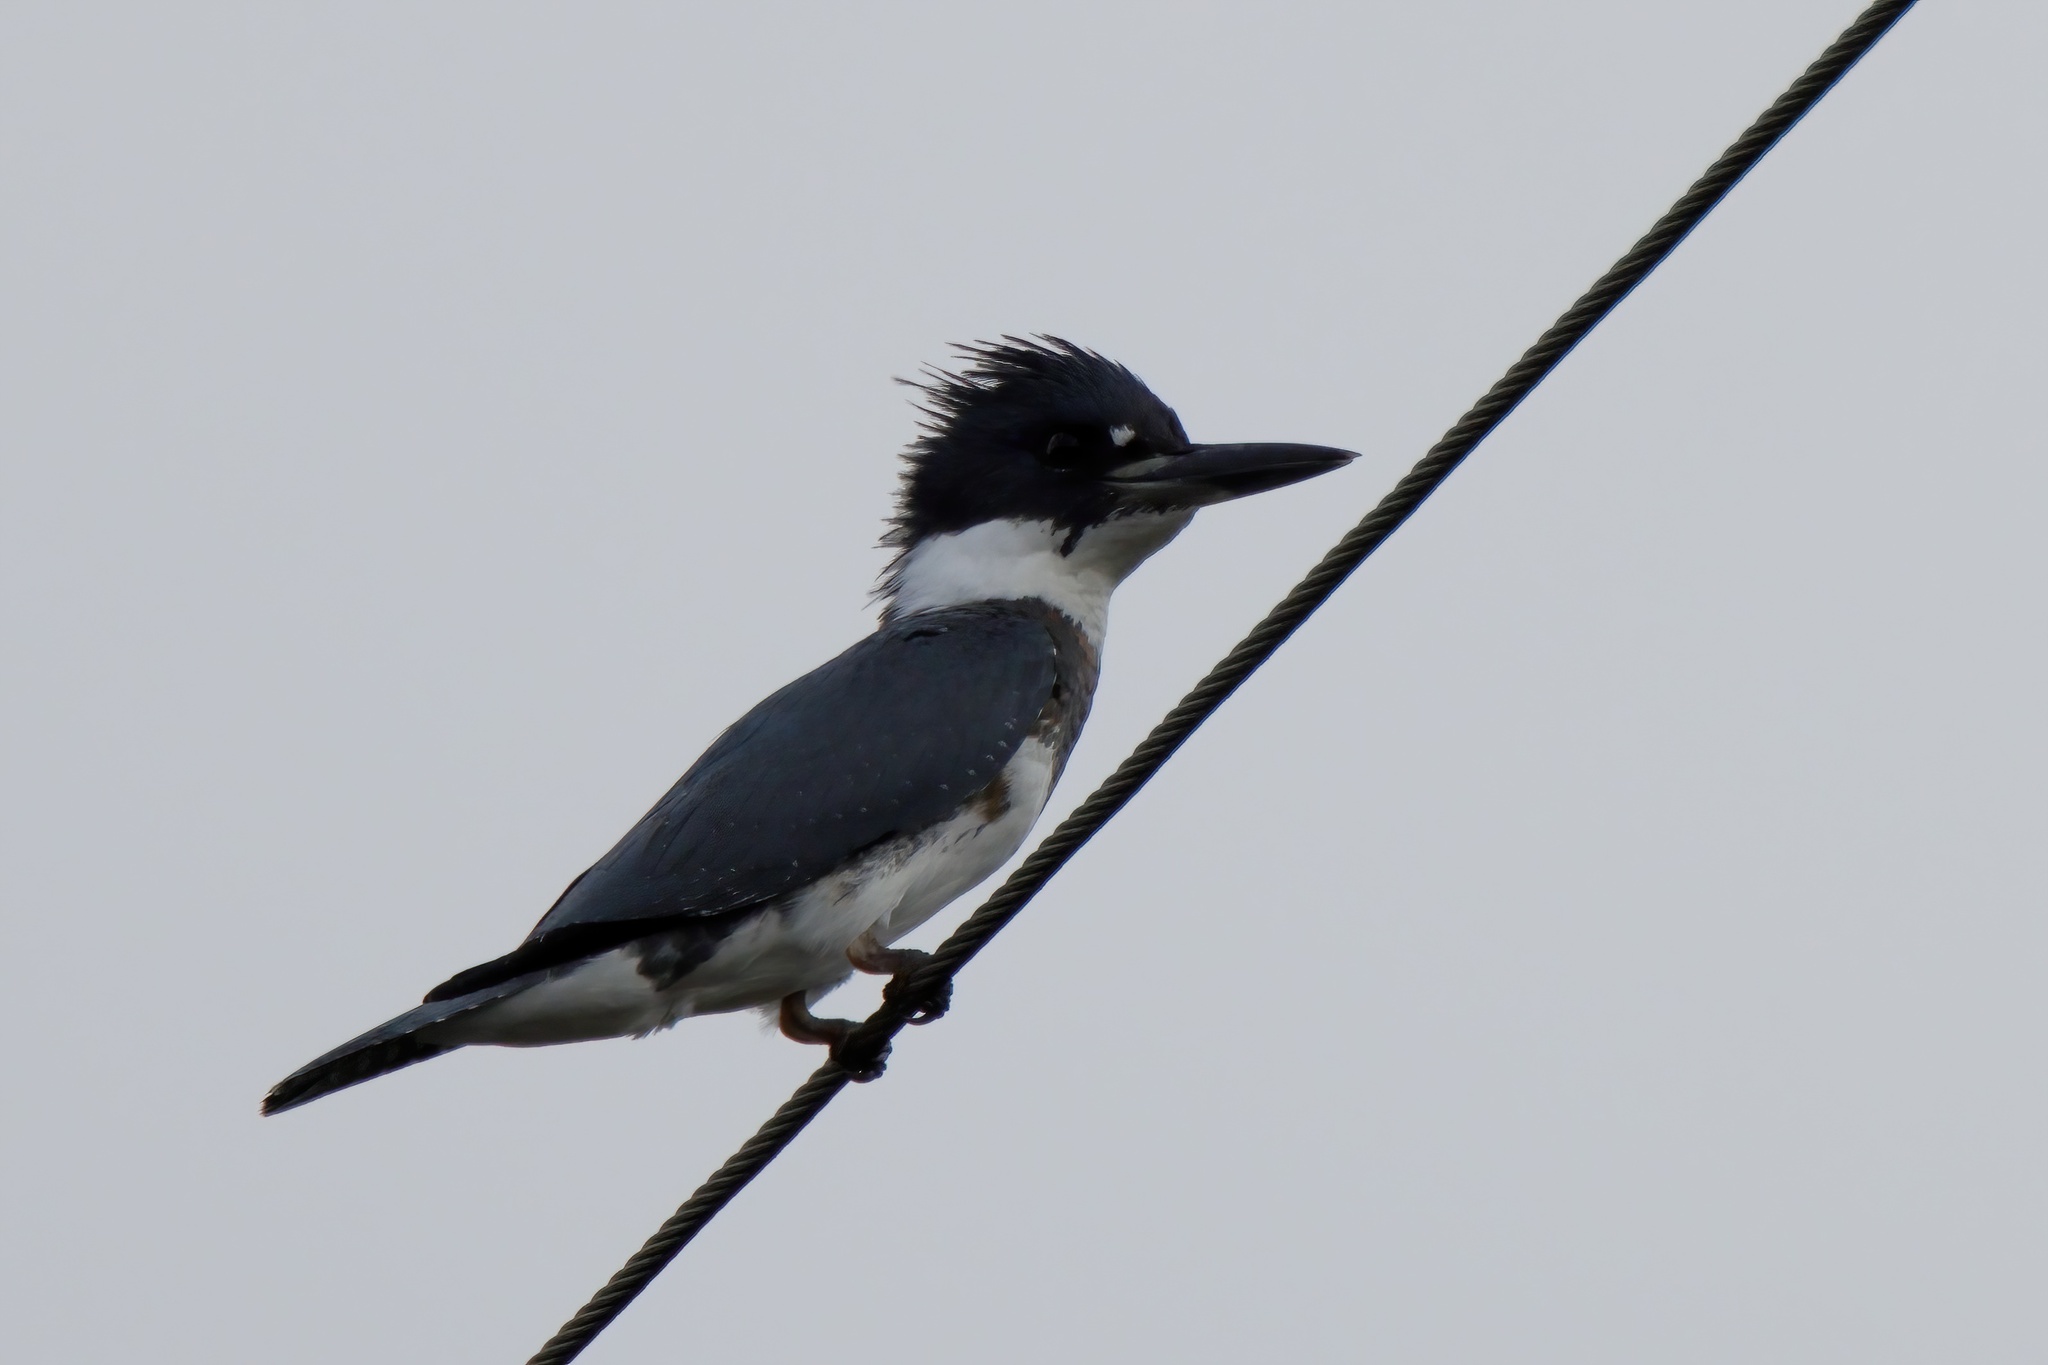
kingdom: Animalia
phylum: Chordata
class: Aves
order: Coraciiformes
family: Alcedinidae
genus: Megaceryle
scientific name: Megaceryle alcyon
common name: Belted kingfisher
